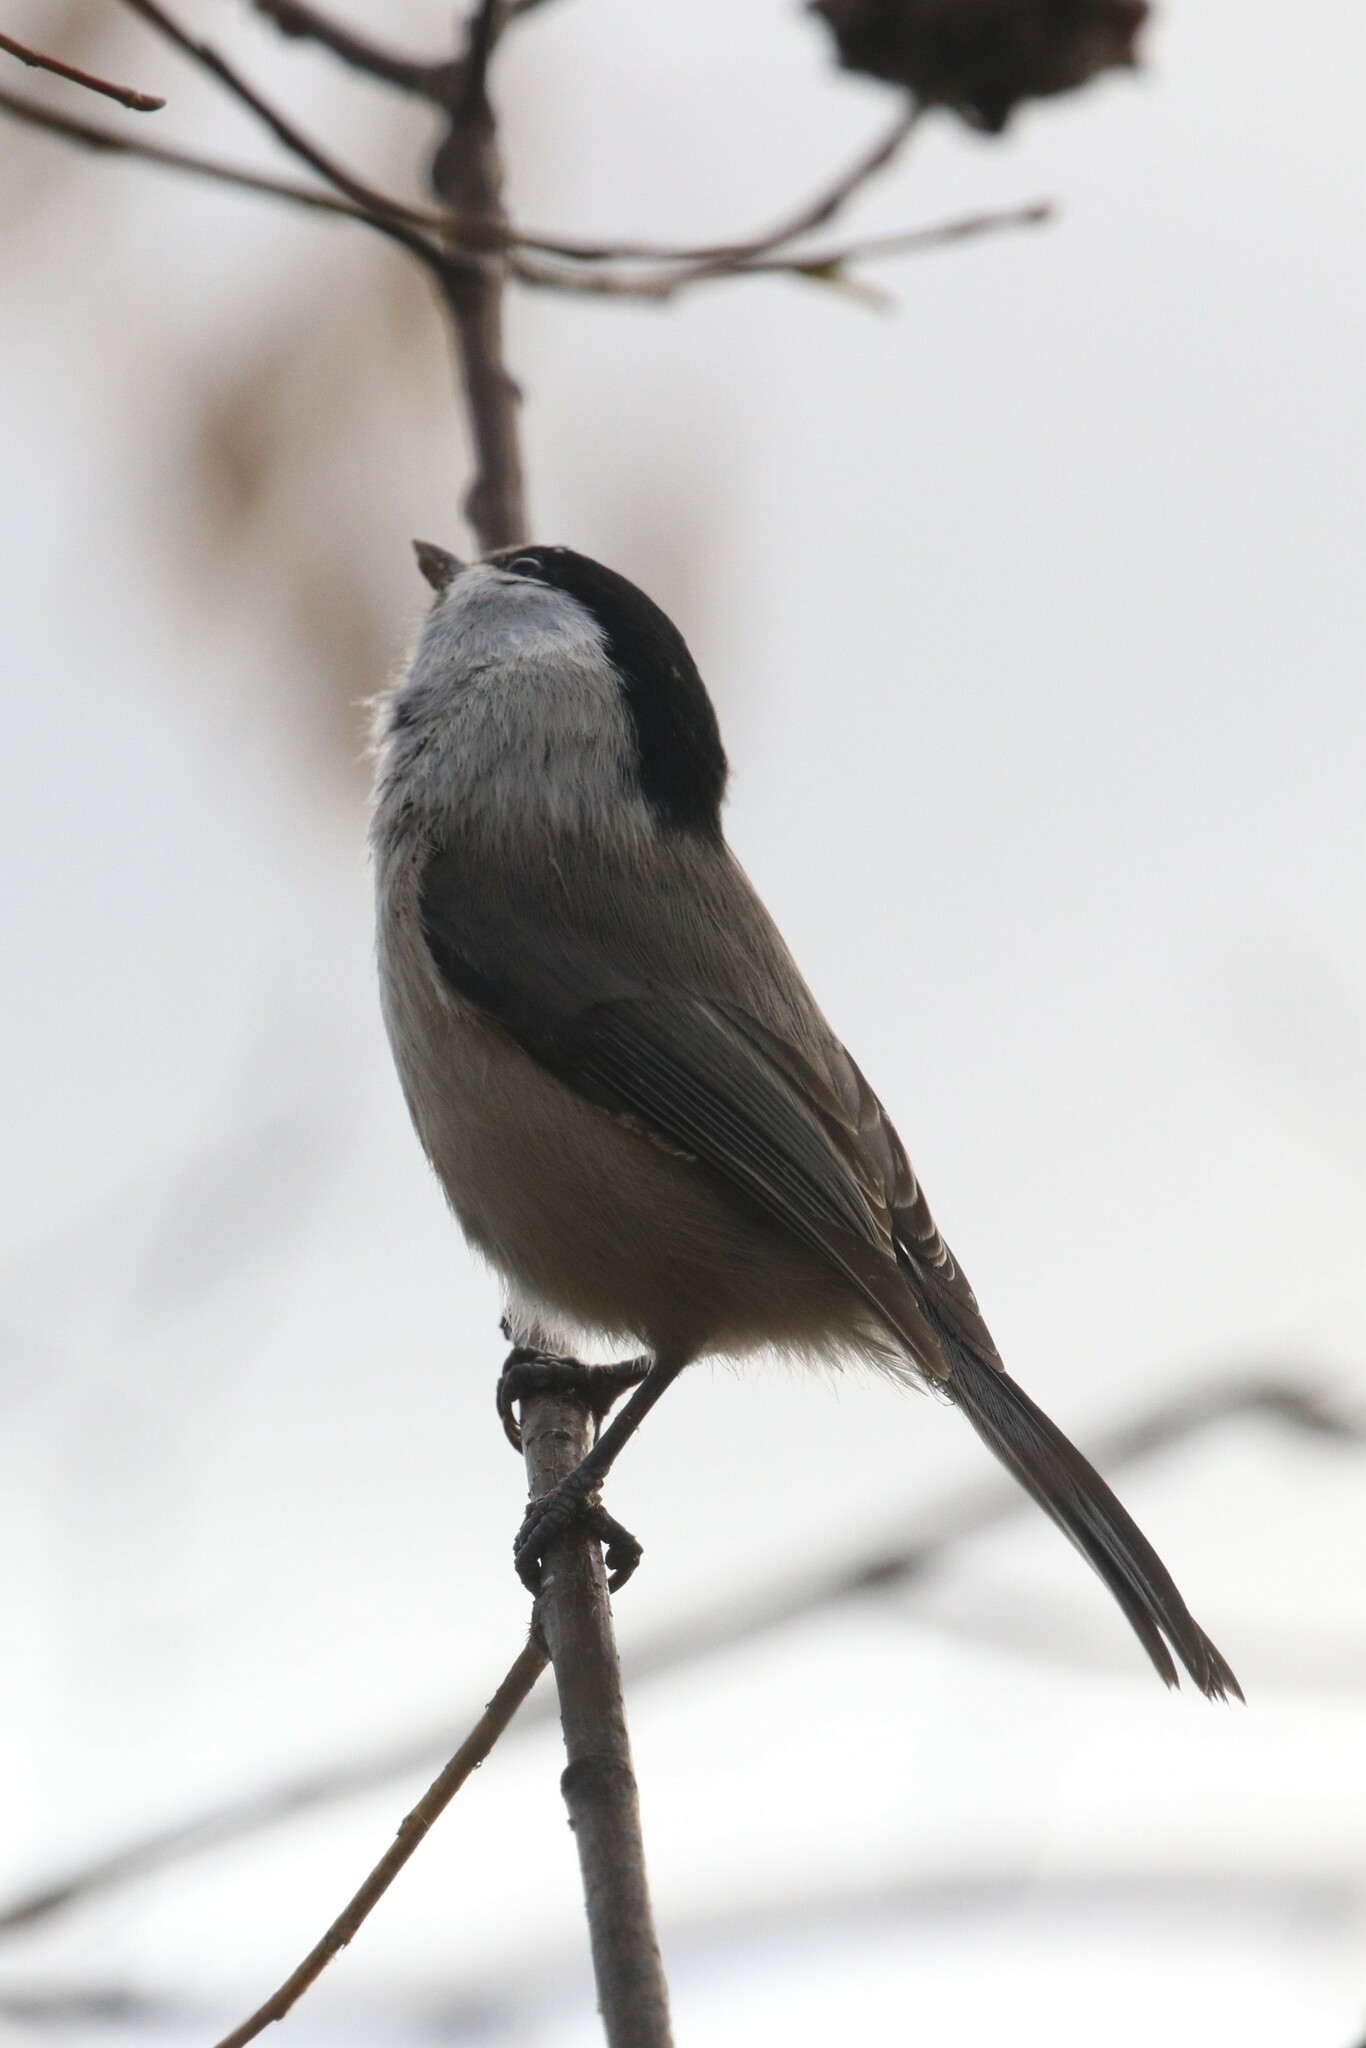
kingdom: Animalia
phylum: Chordata
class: Aves
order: Passeriformes
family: Paridae
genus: Poecile
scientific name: Poecile montanus
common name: Willow tit
